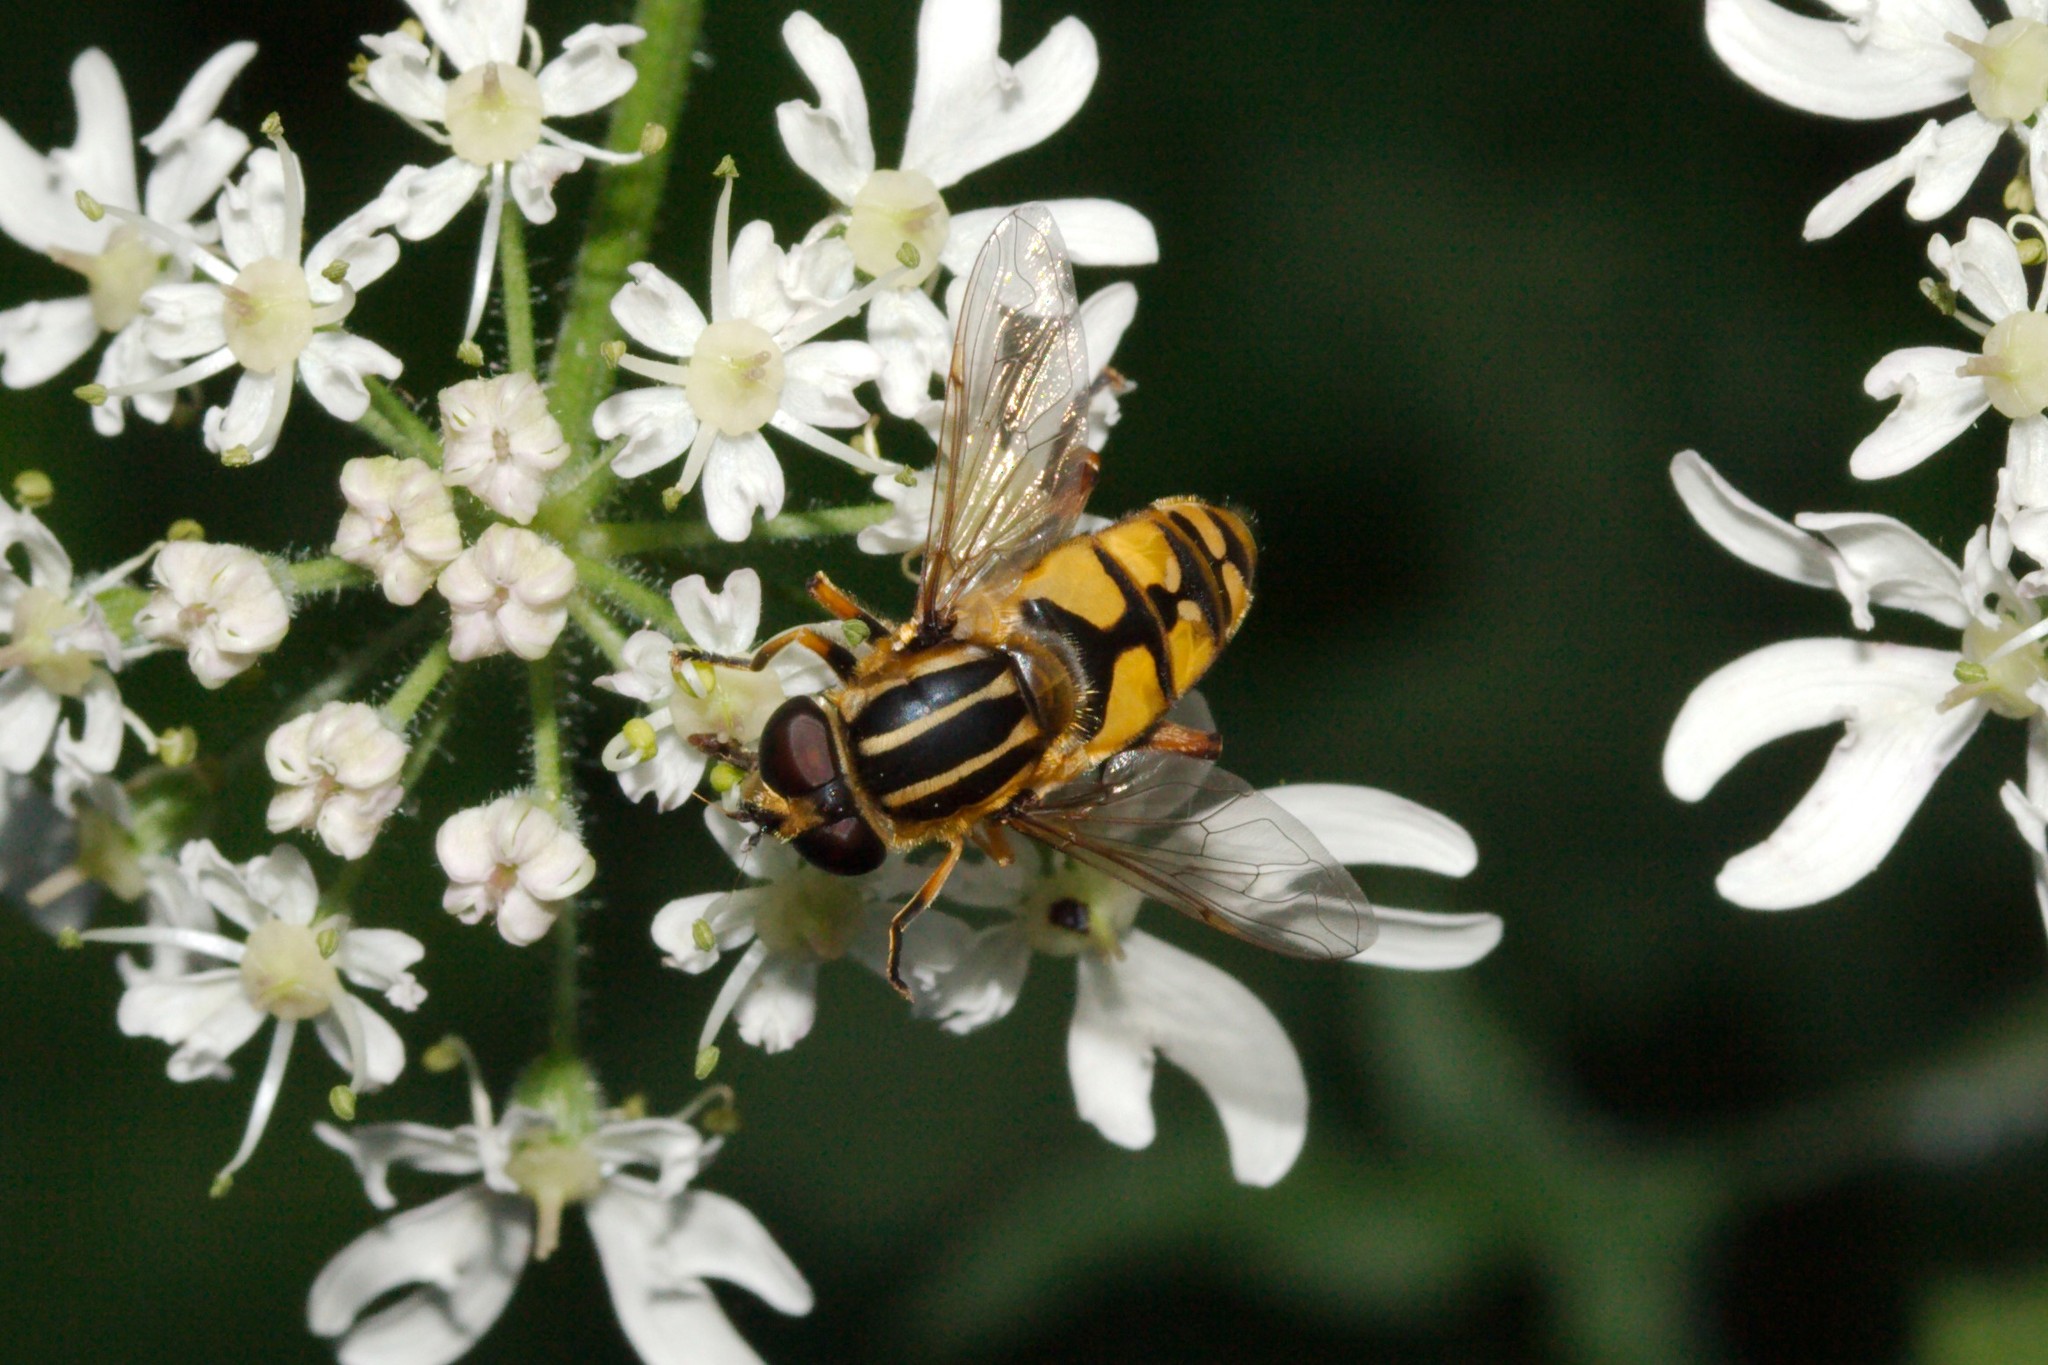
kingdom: Animalia
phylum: Arthropoda
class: Insecta
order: Diptera
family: Syrphidae
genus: Helophilus
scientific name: Helophilus pendulus
